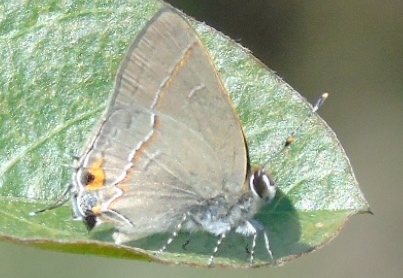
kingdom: Animalia
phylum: Arthropoda
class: Insecta
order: Lepidoptera
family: Lycaenidae
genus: Thecla
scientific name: Thecla joya
